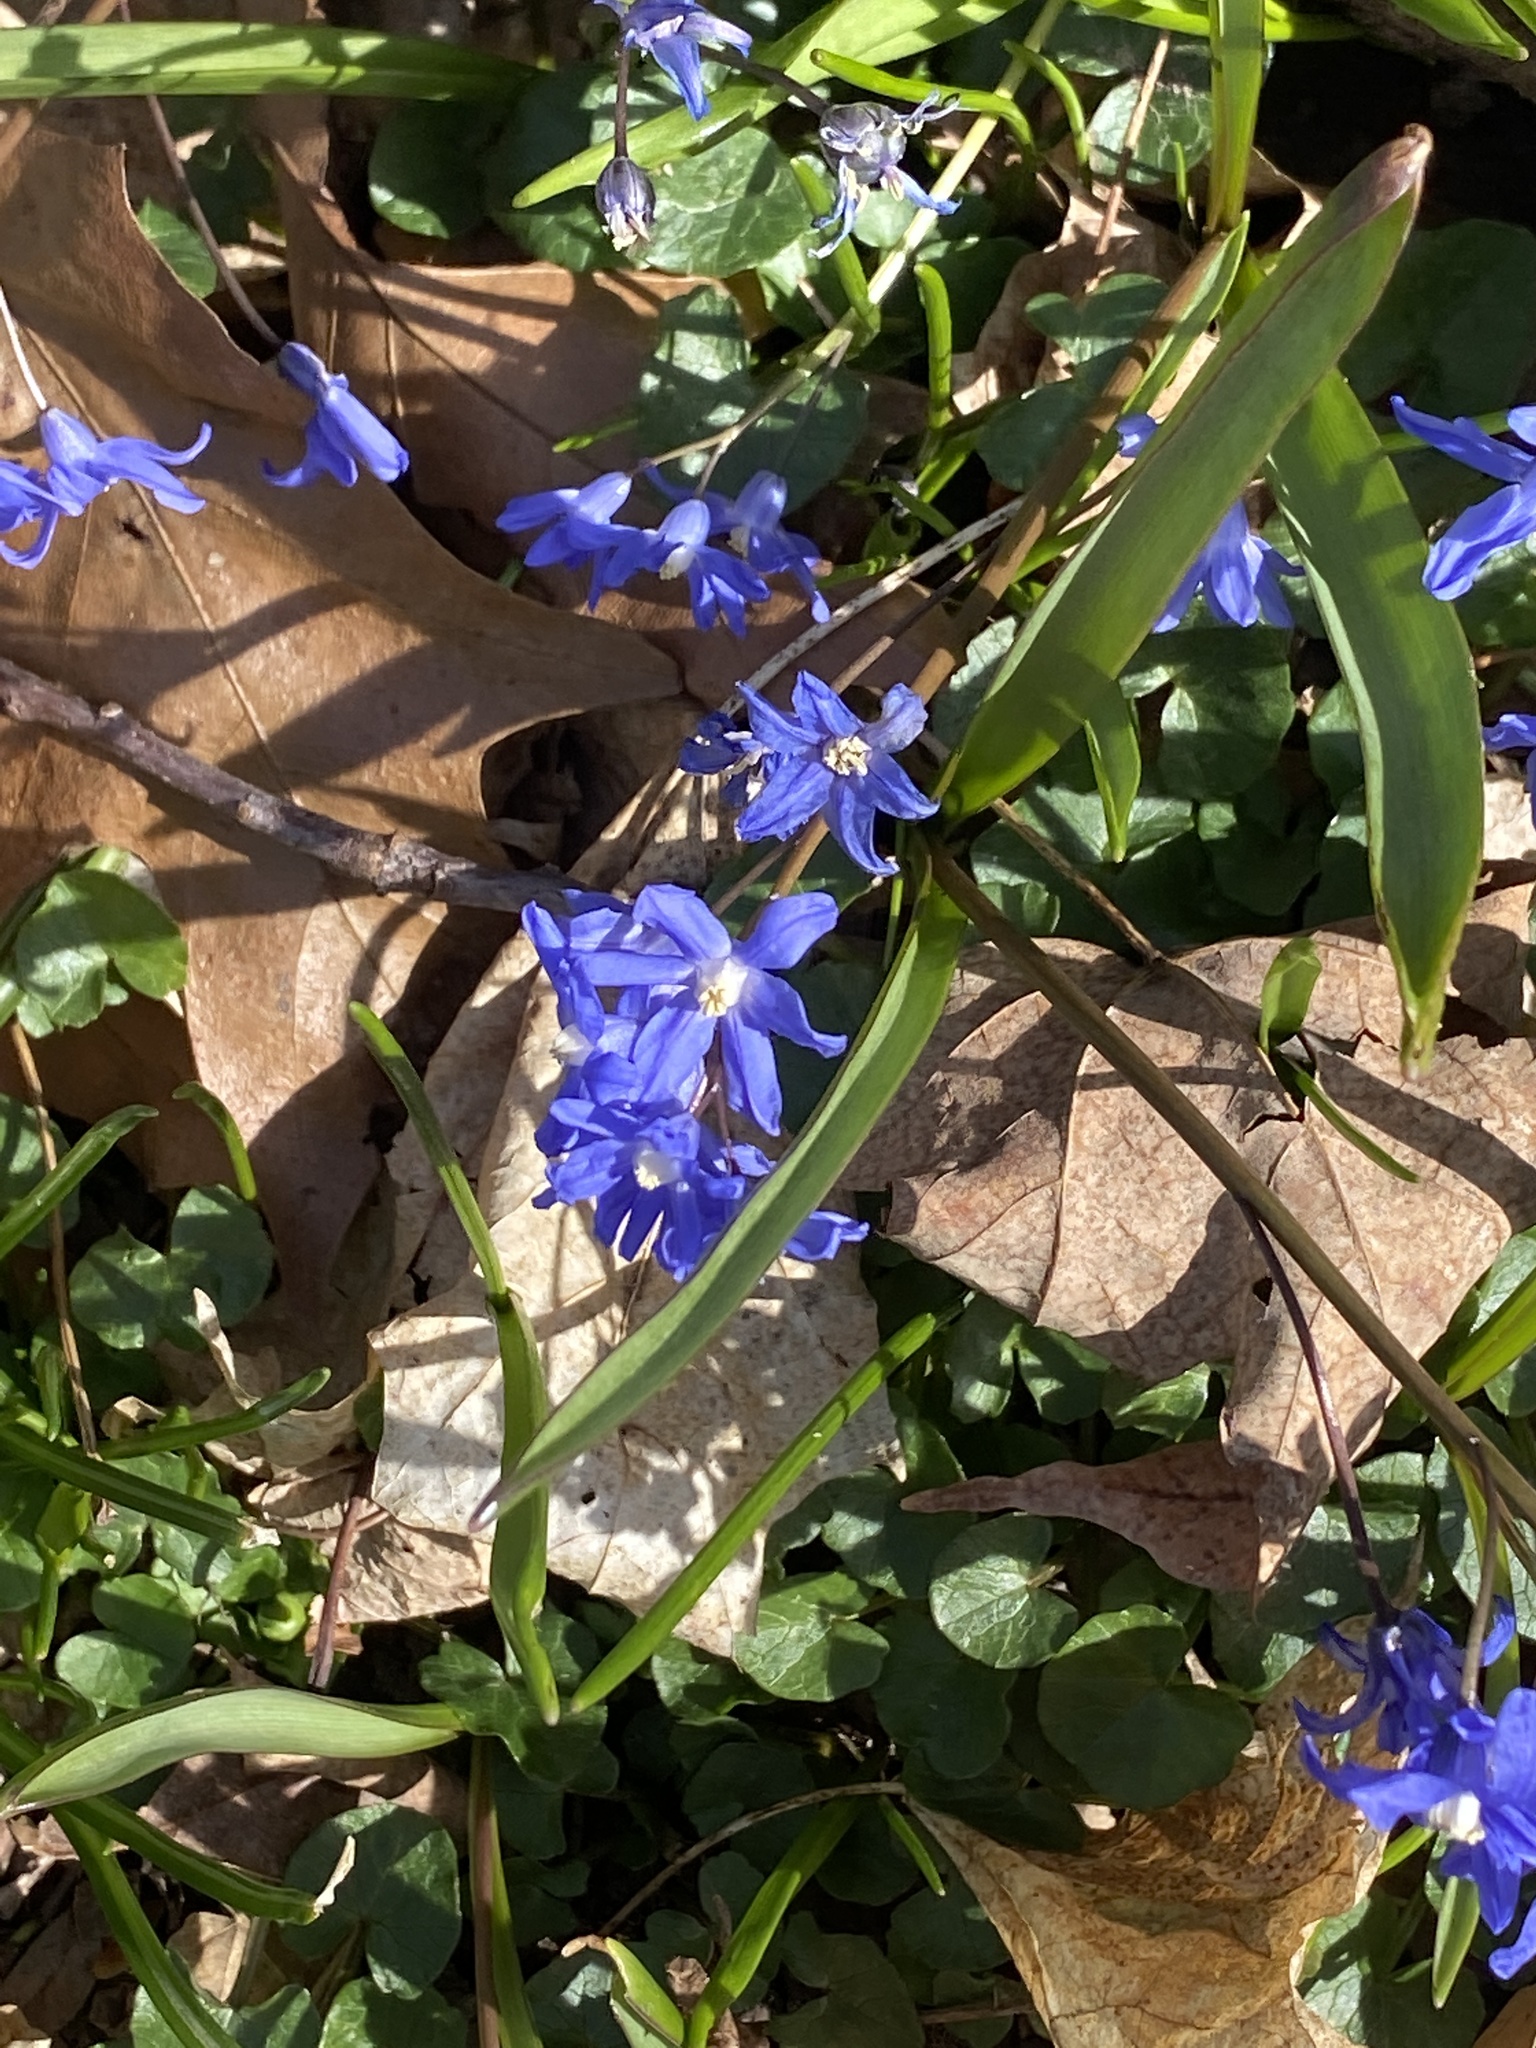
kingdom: Plantae
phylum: Tracheophyta
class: Liliopsida
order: Asparagales
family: Asparagaceae
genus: Scilla
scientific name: Scilla sardensis
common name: Lesser glory-of-the-snow
